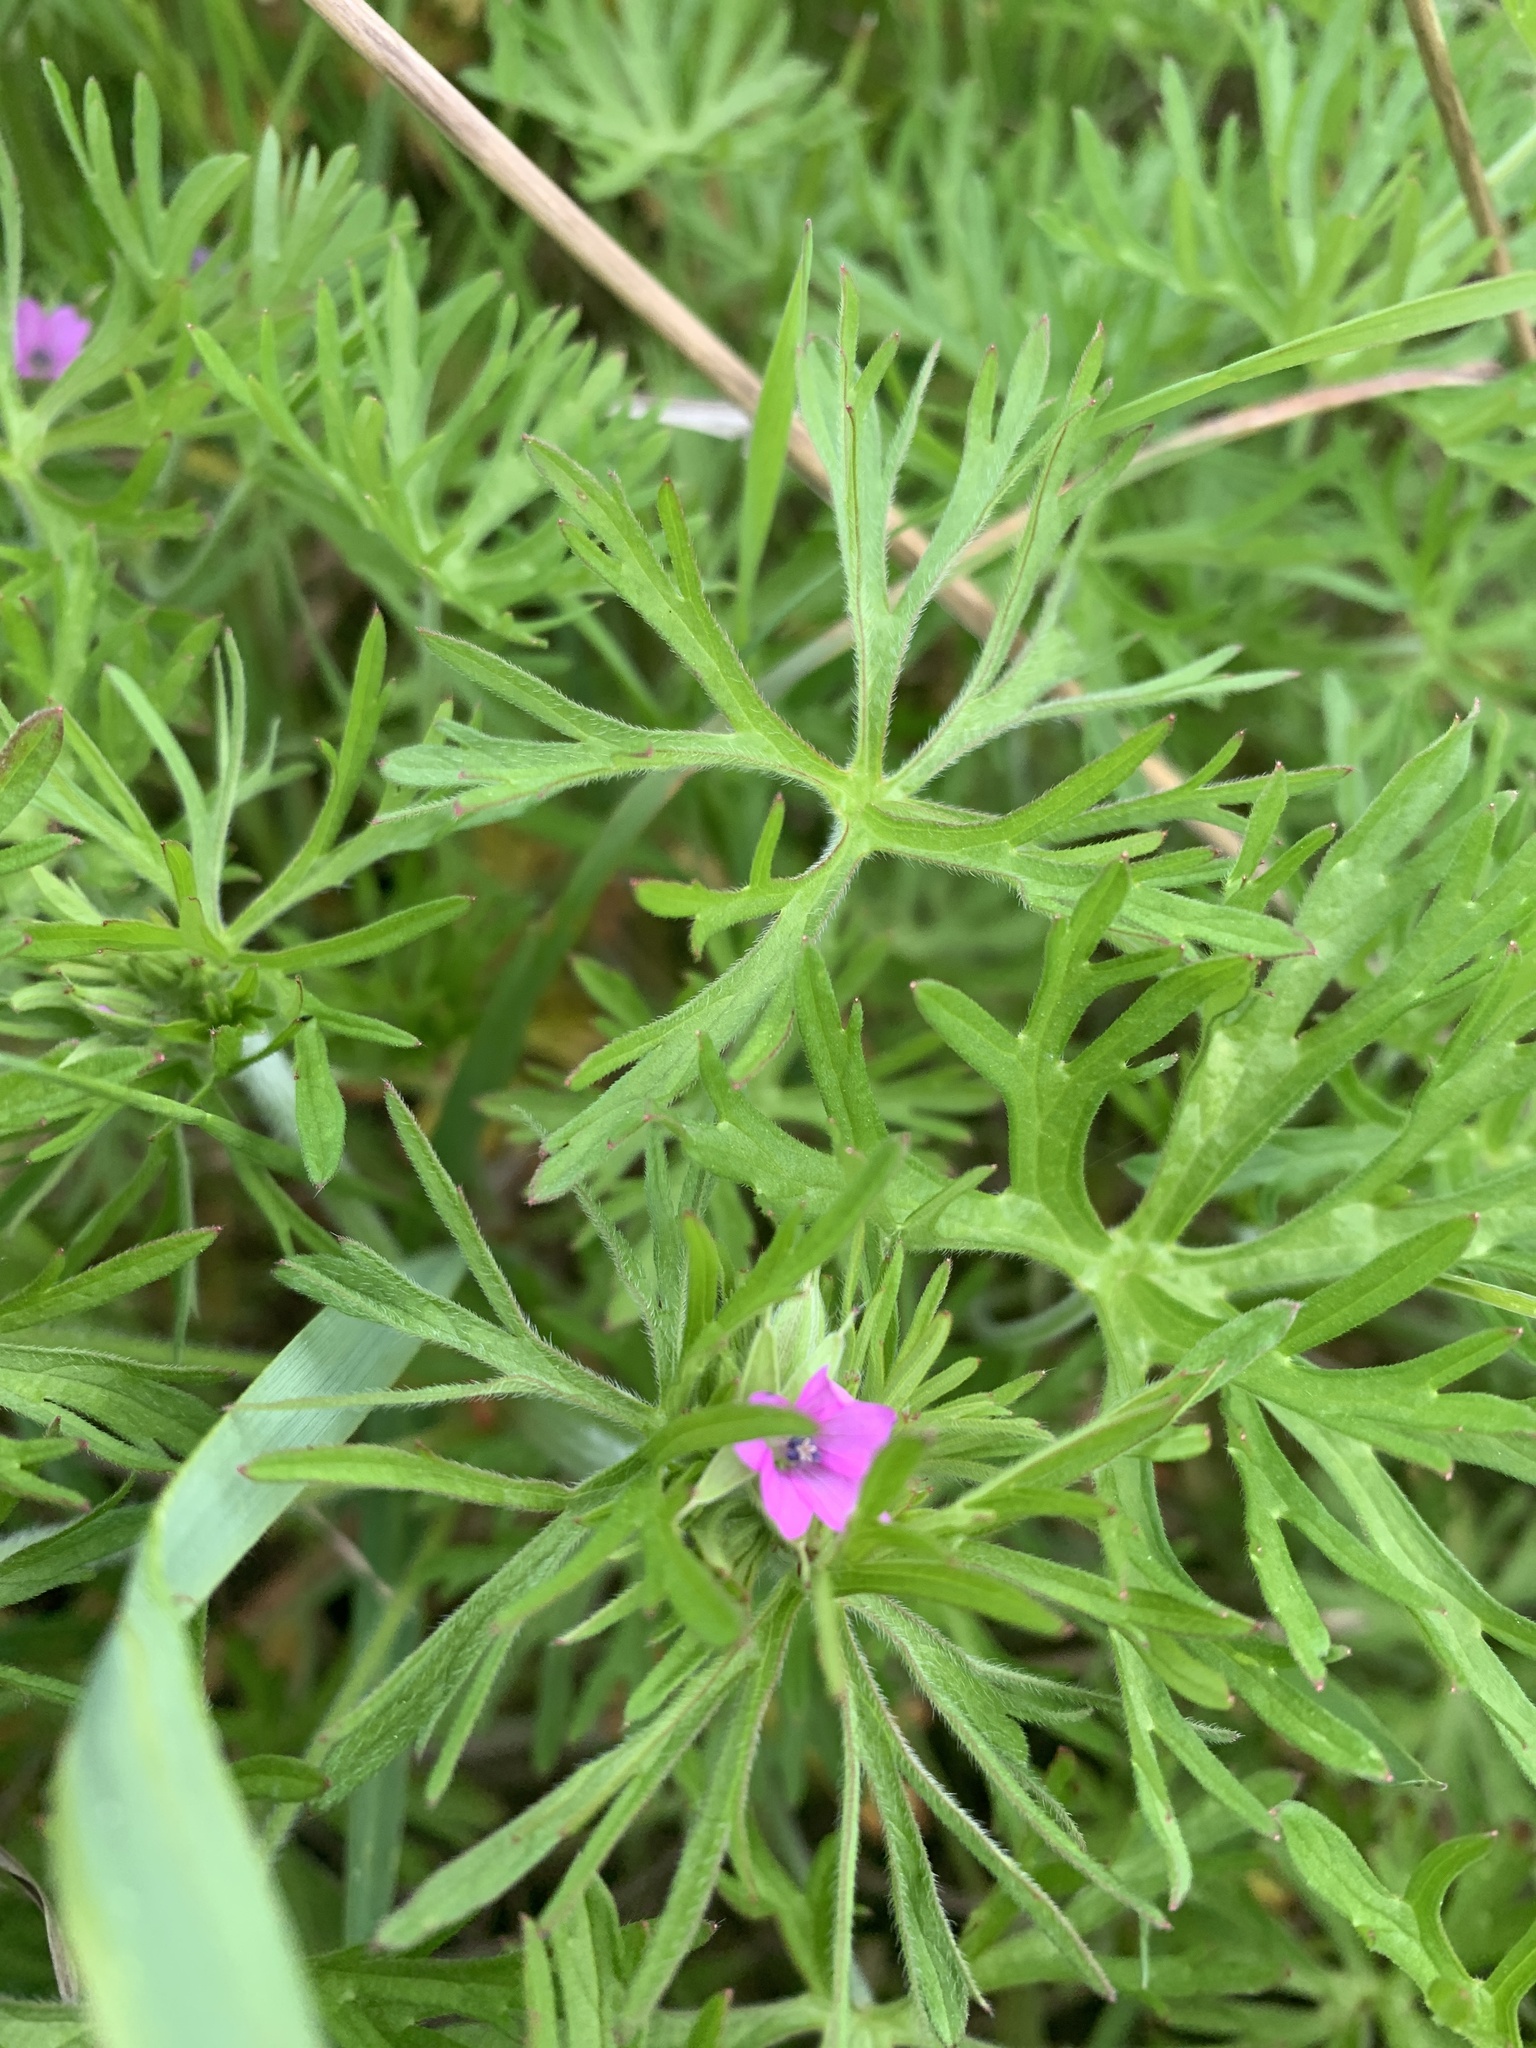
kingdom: Plantae
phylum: Tracheophyta
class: Magnoliopsida
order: Geraniales
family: Geraniaceae
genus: Geranium
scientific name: Geranium dissectum
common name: Cut-leaved crane's-bill
